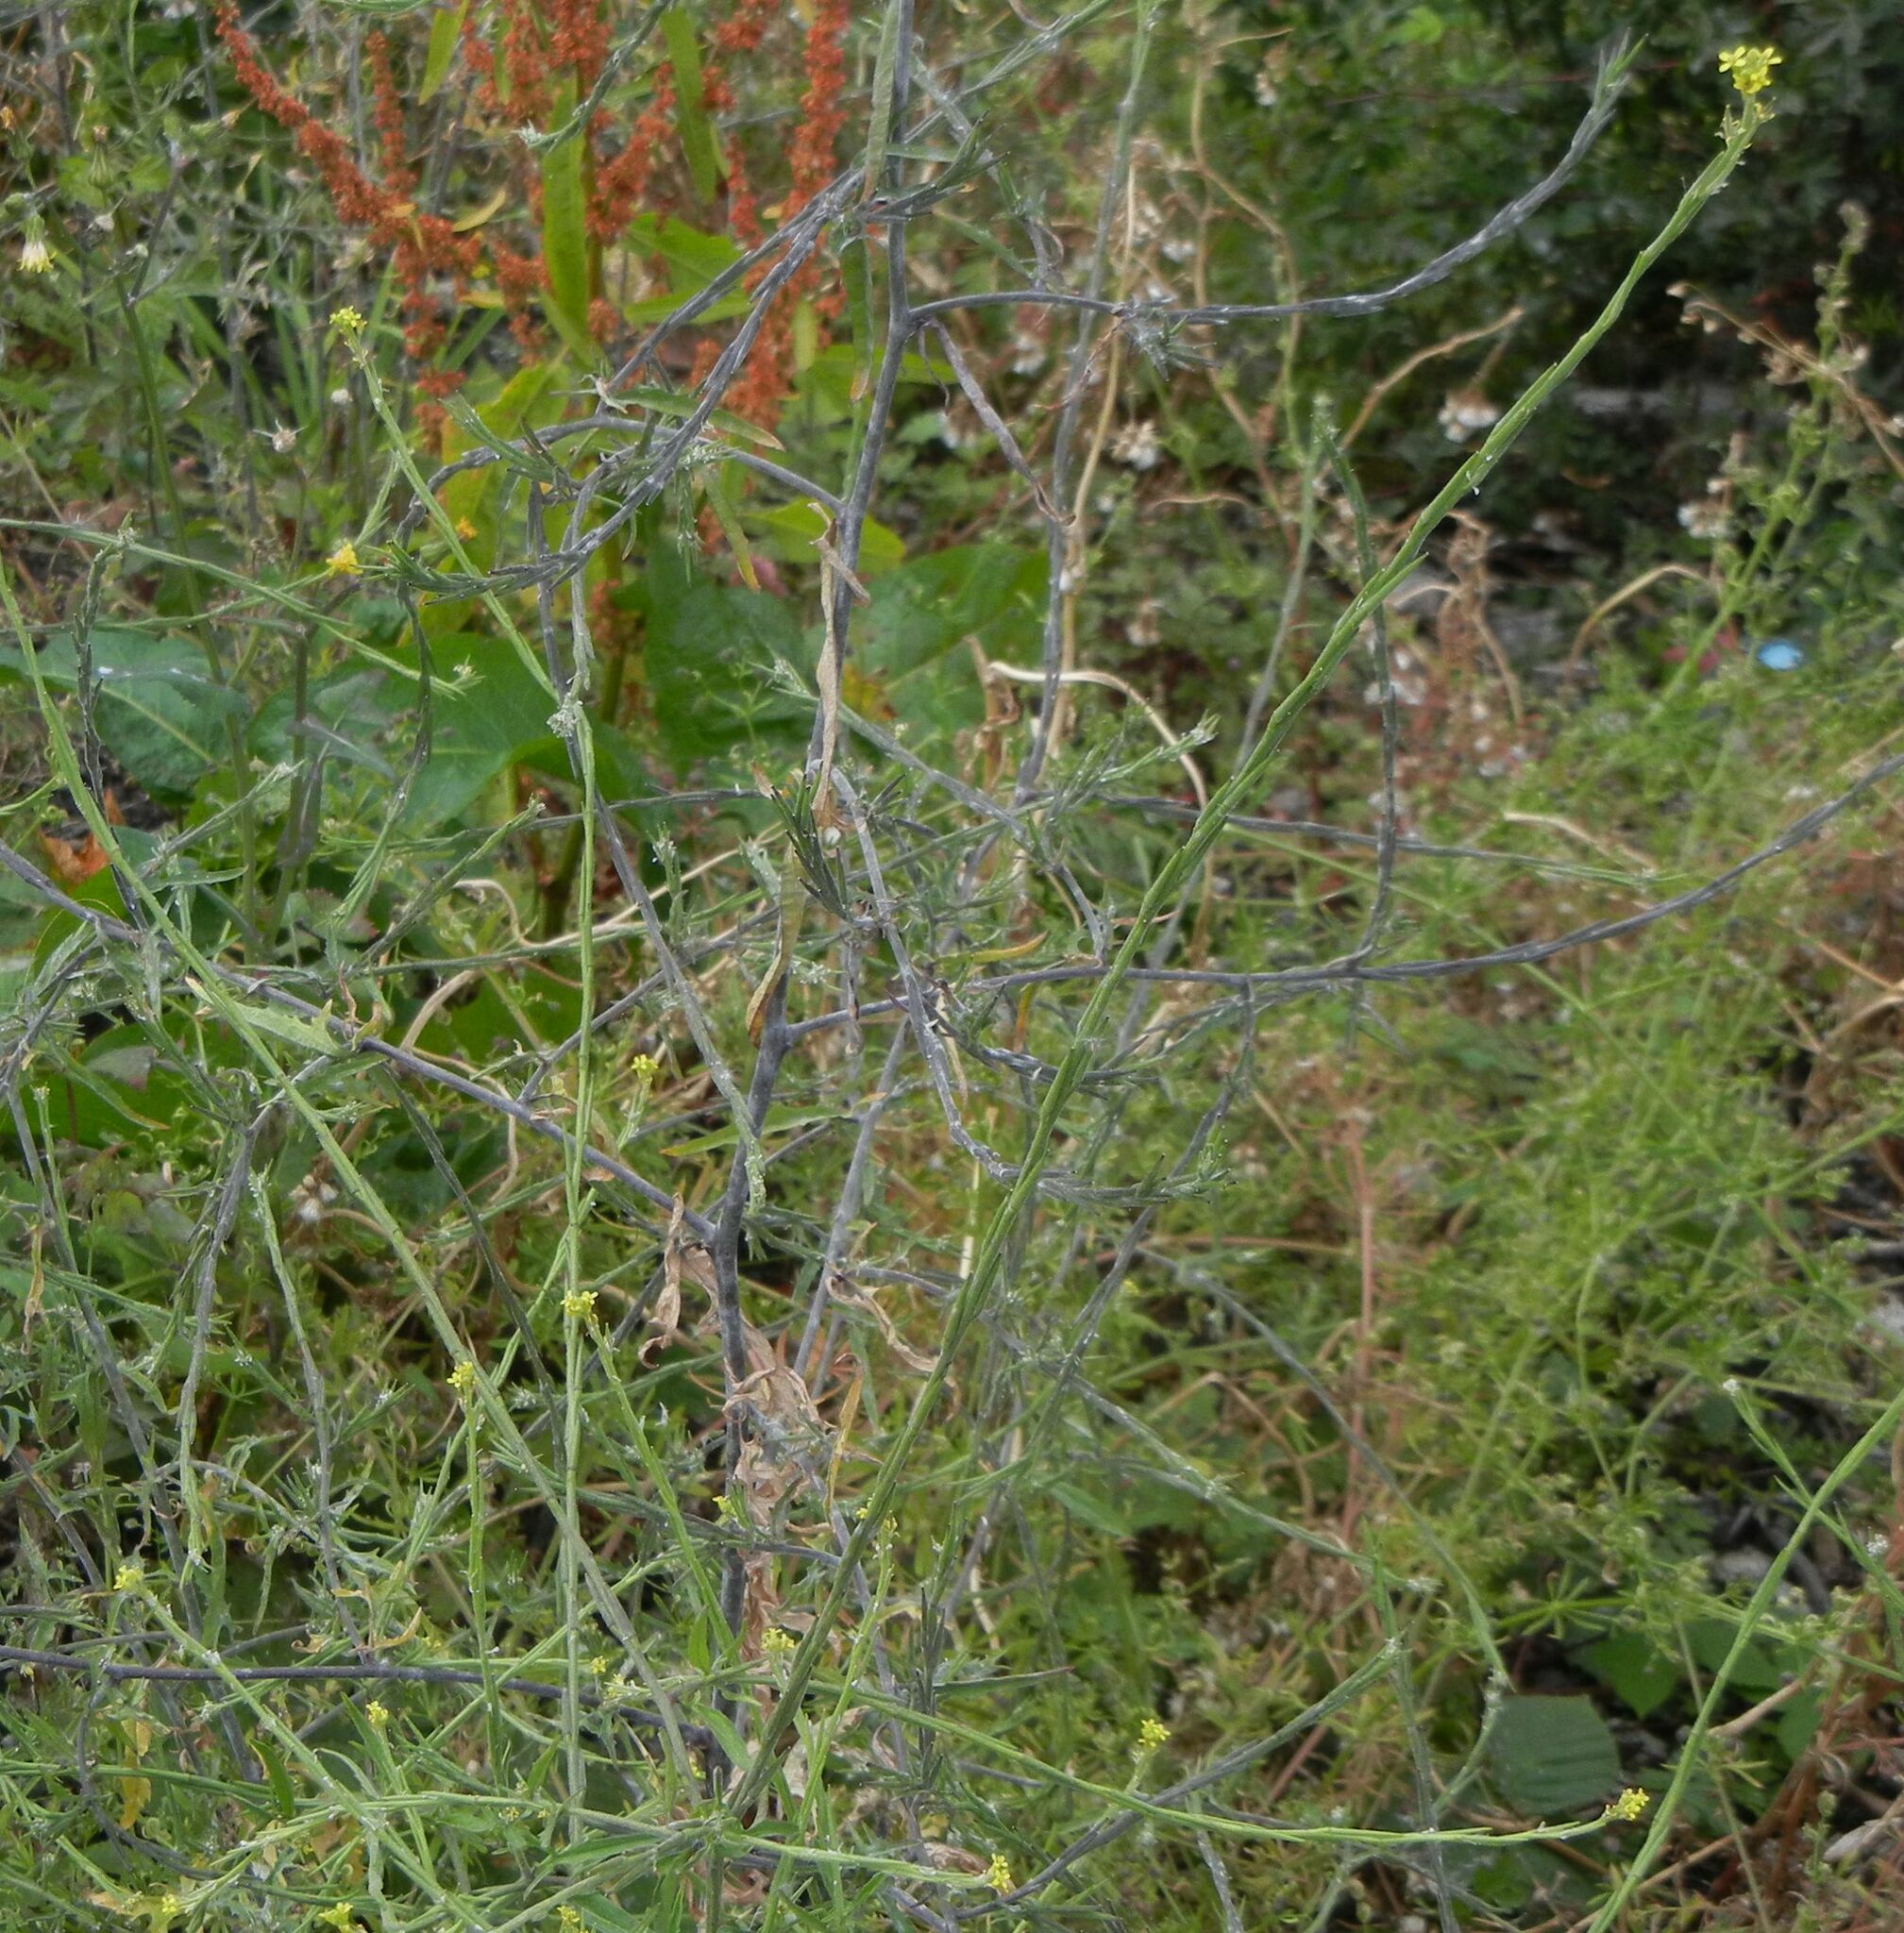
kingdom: Plantae
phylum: Tracheophyta
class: Magnoliopsida
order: Brassicales
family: Brassicaceae
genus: Sisymbrium
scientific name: Sisymbrium officinale
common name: Hedge mustard
